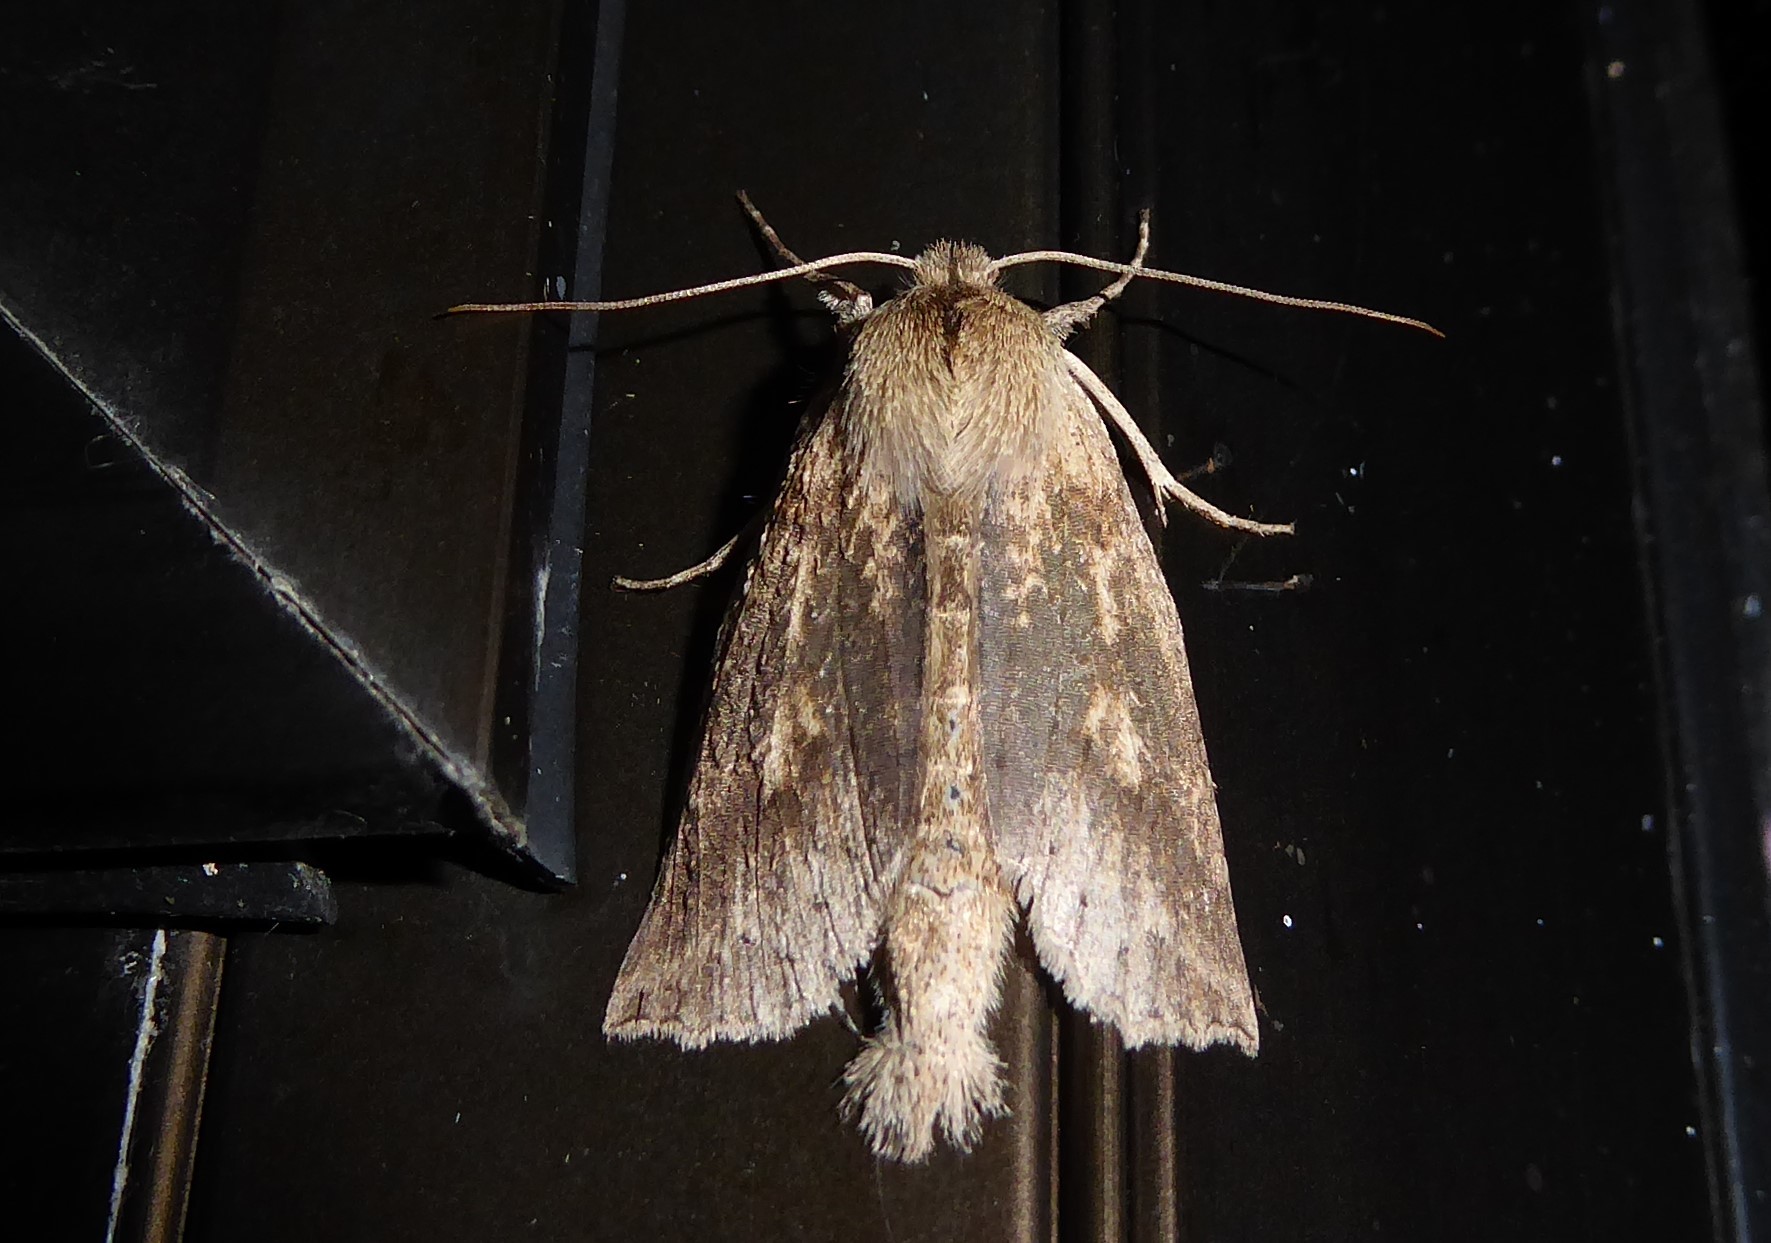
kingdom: Animalia
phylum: Arthropoda
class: Insecta
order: Lepidoptera
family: Geometridae
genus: Declana
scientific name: Declana leptomera
